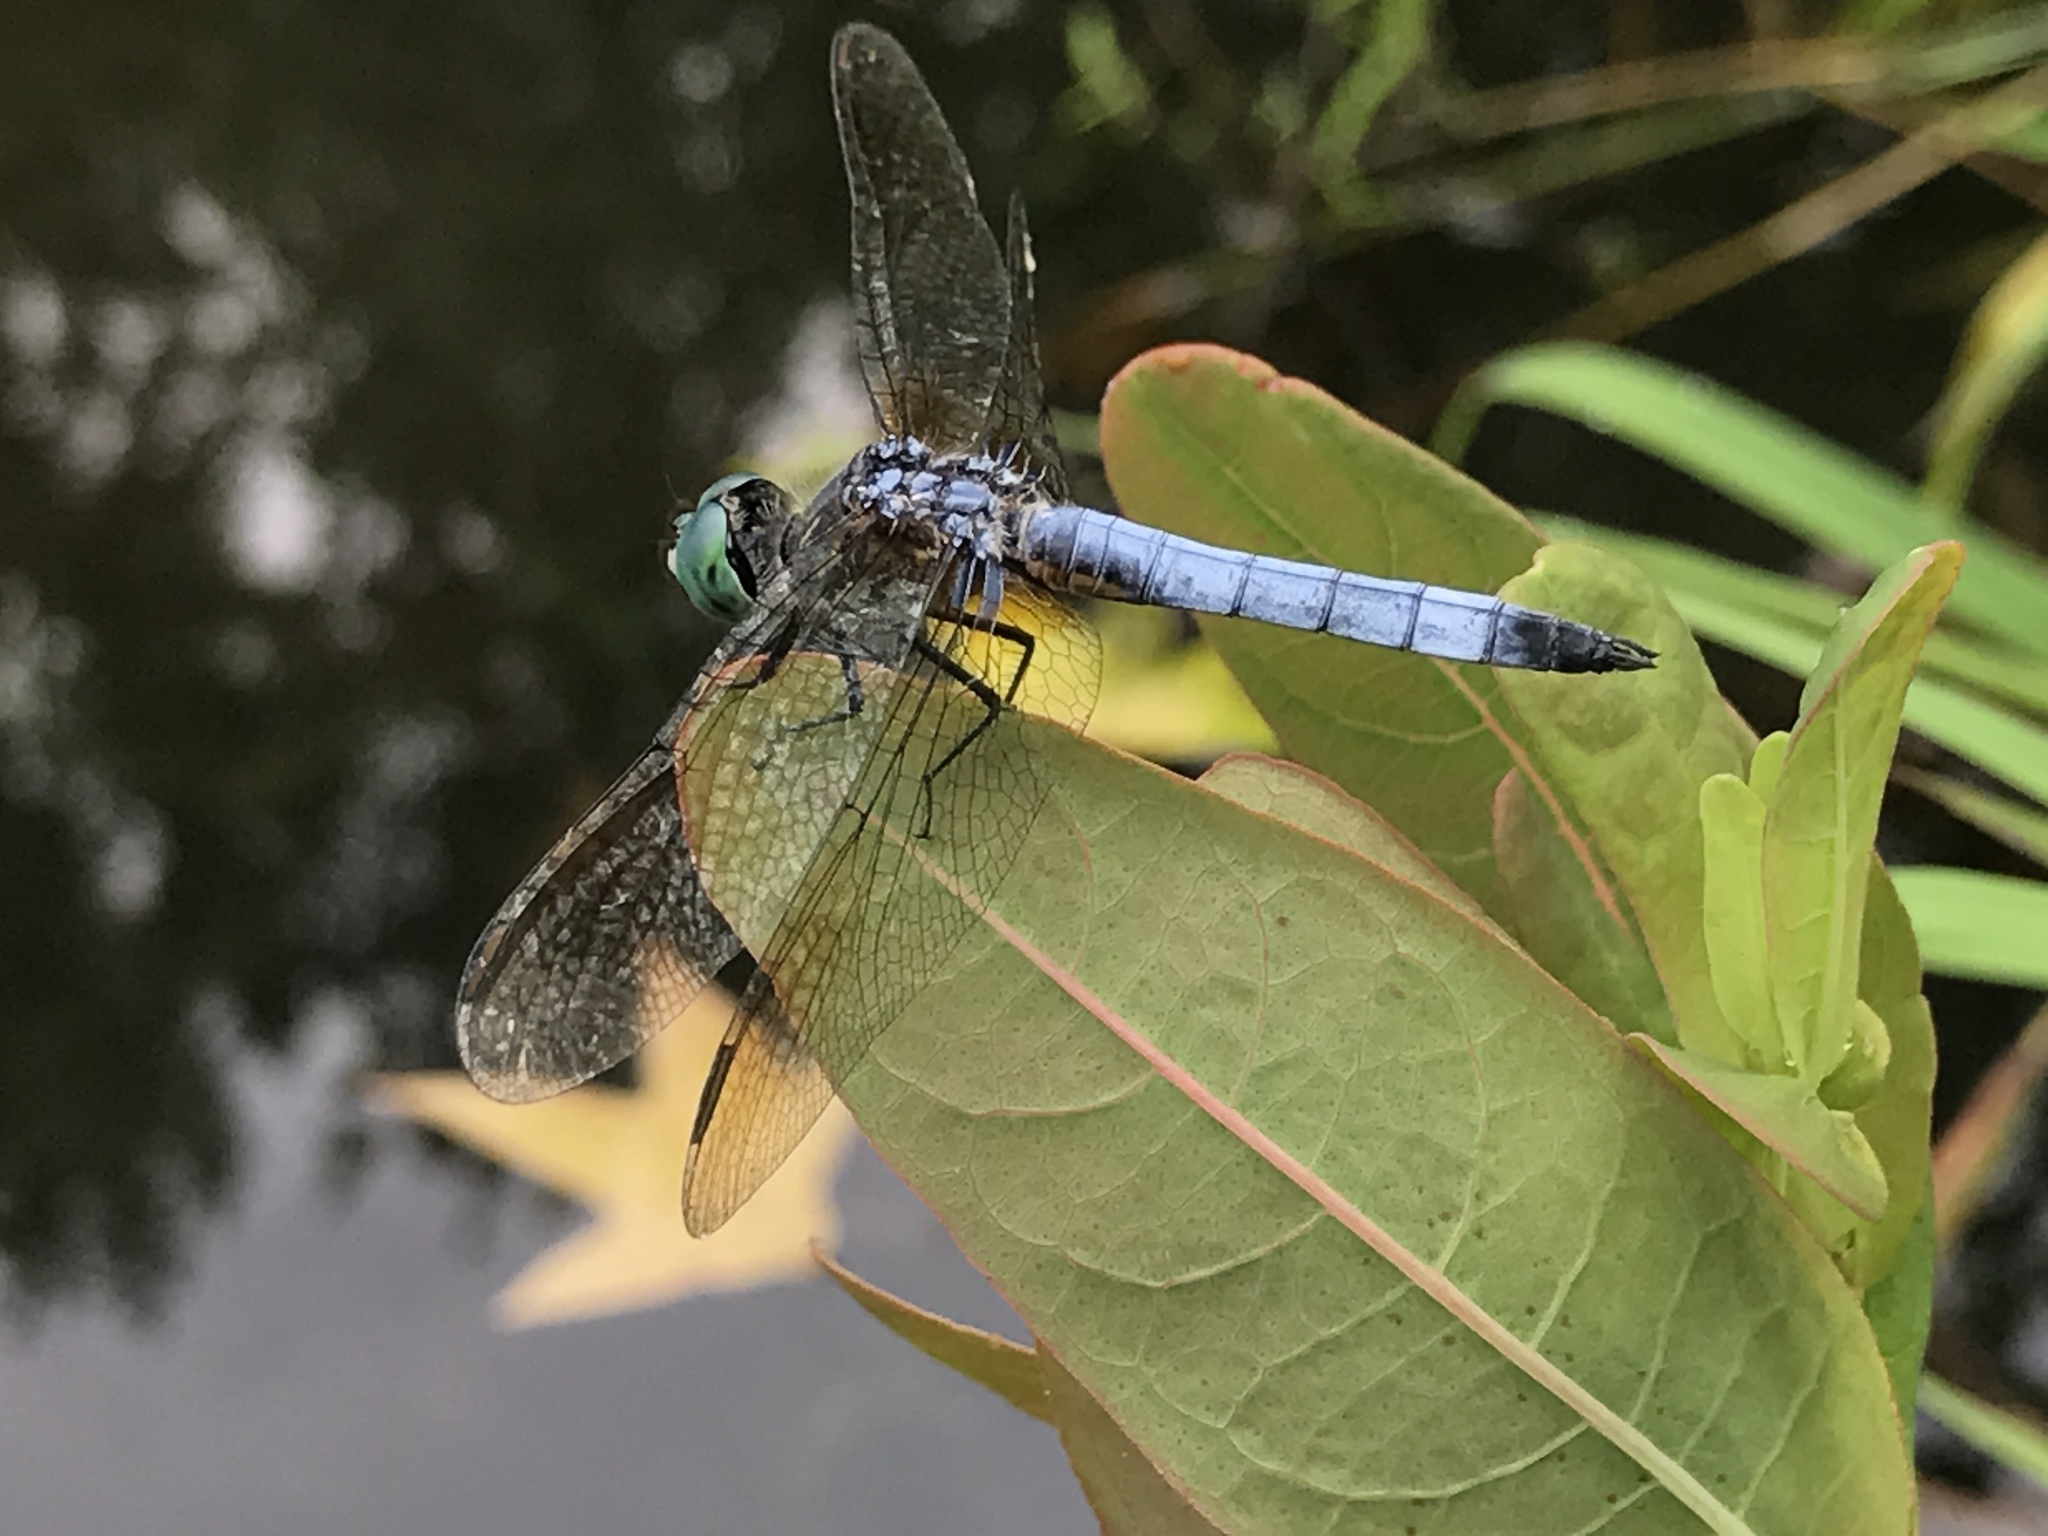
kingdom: Animalia
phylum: Arthropoda
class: Insecta
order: Odonata
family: Libellulidae
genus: Pachydiplax
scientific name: Pachydiplax longipennis
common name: Blue dasher
